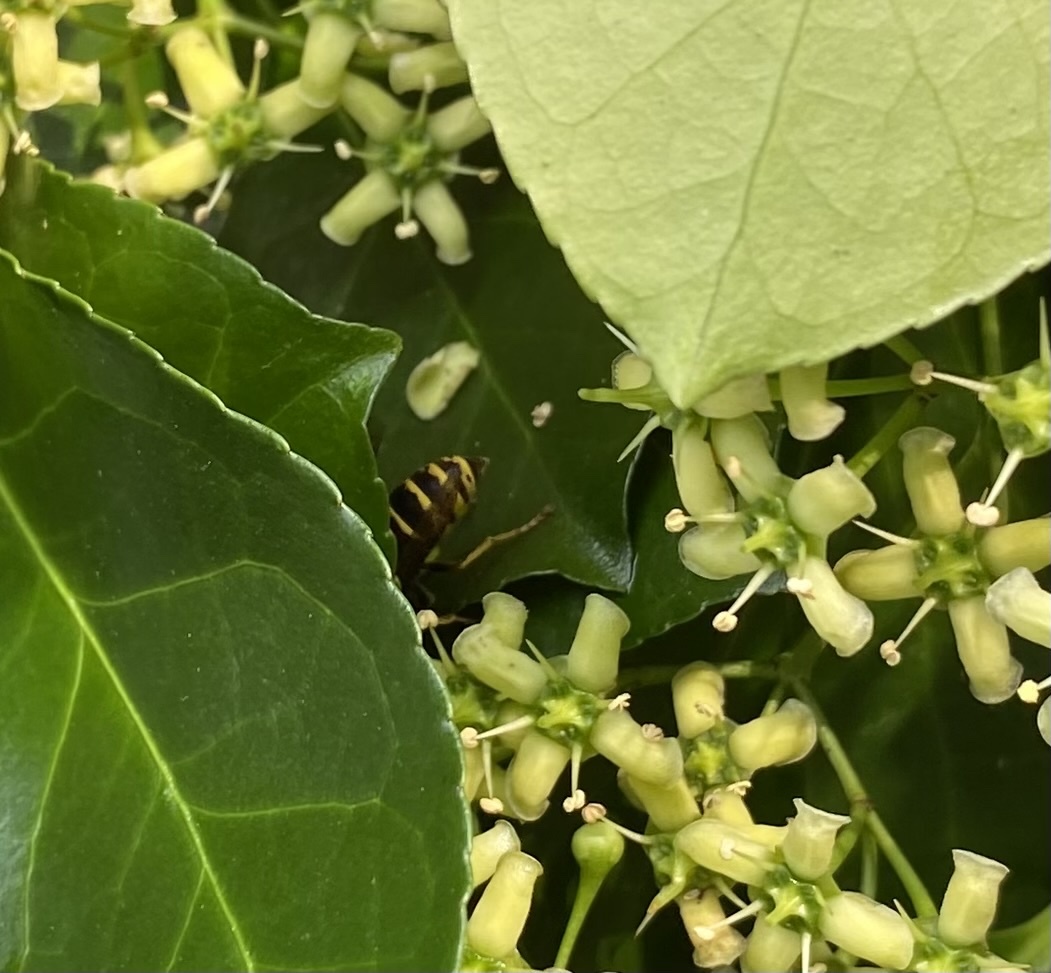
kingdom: Animalia
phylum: Arthropoda
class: Insecta
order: Hymenoptera
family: Vespidae
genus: Vespula
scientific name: Vespula vidua
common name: Widow yellowjacket
